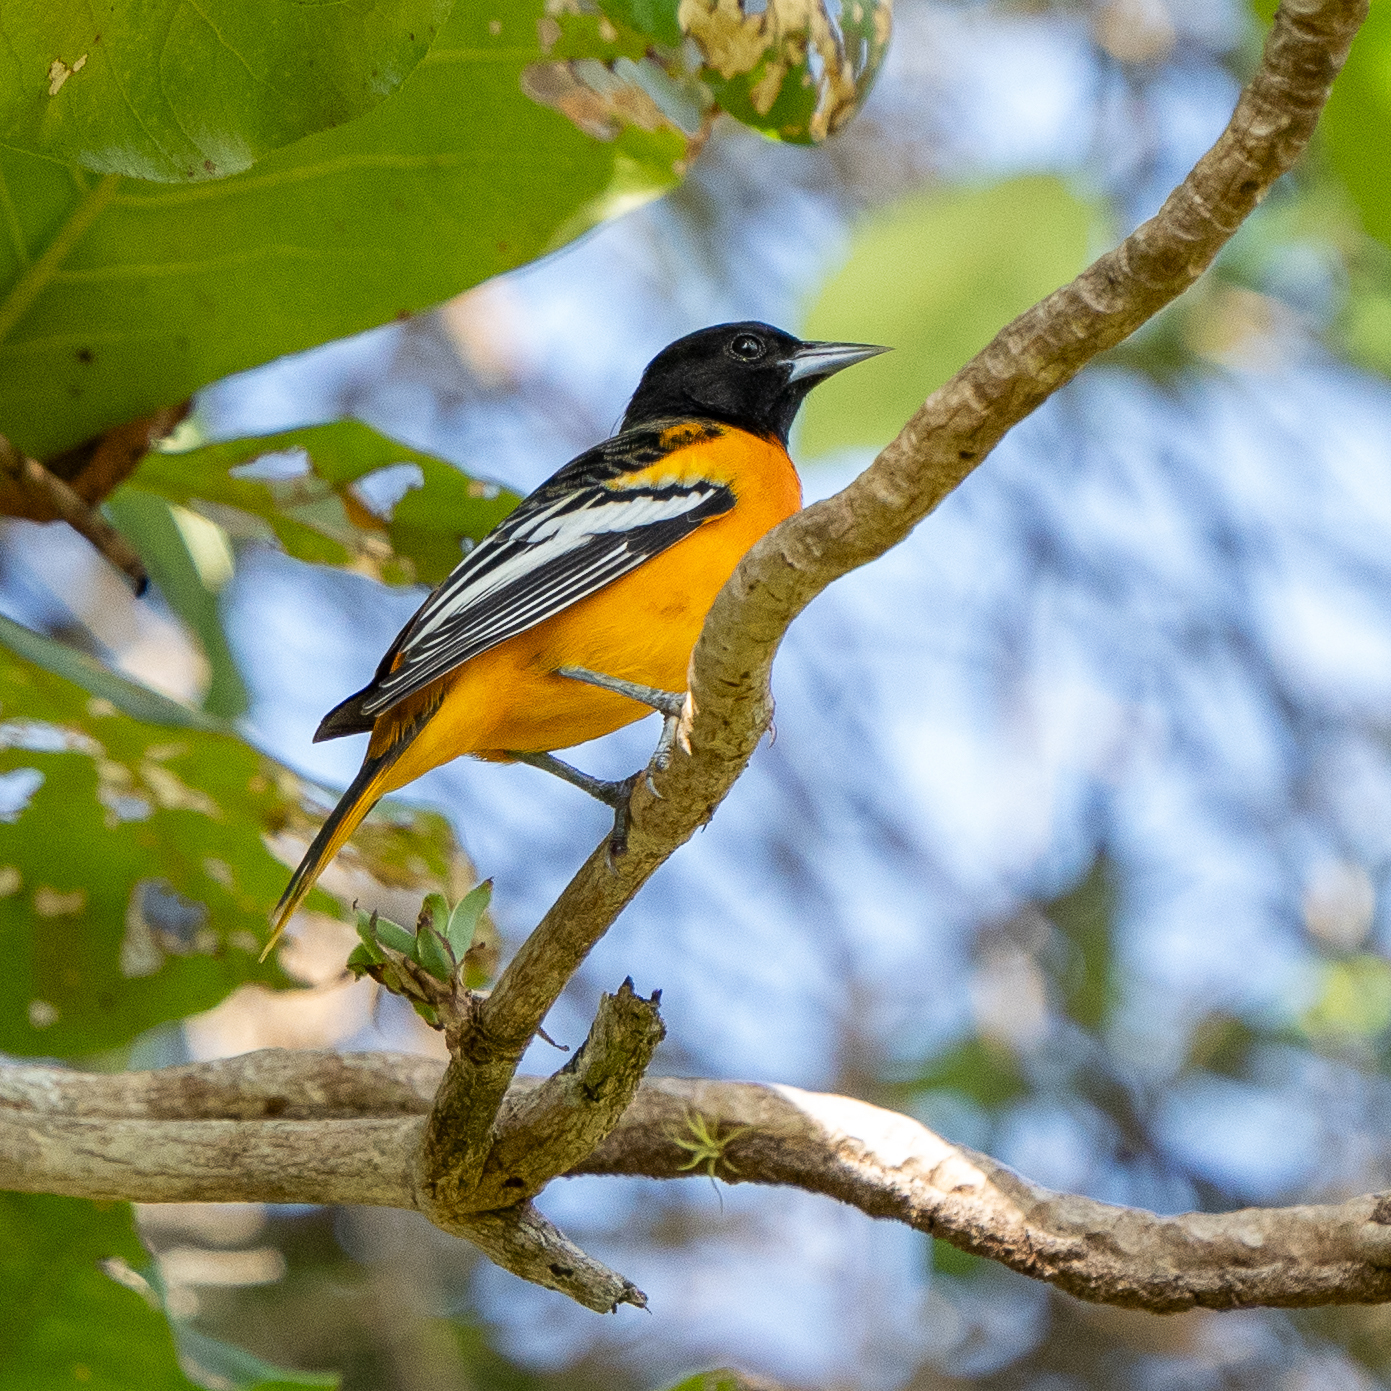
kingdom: Animalia
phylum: Chordata
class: Aves
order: Passeriformes
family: Icteridae
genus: Icterus
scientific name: Icterus galbula
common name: Baltimore oriole
